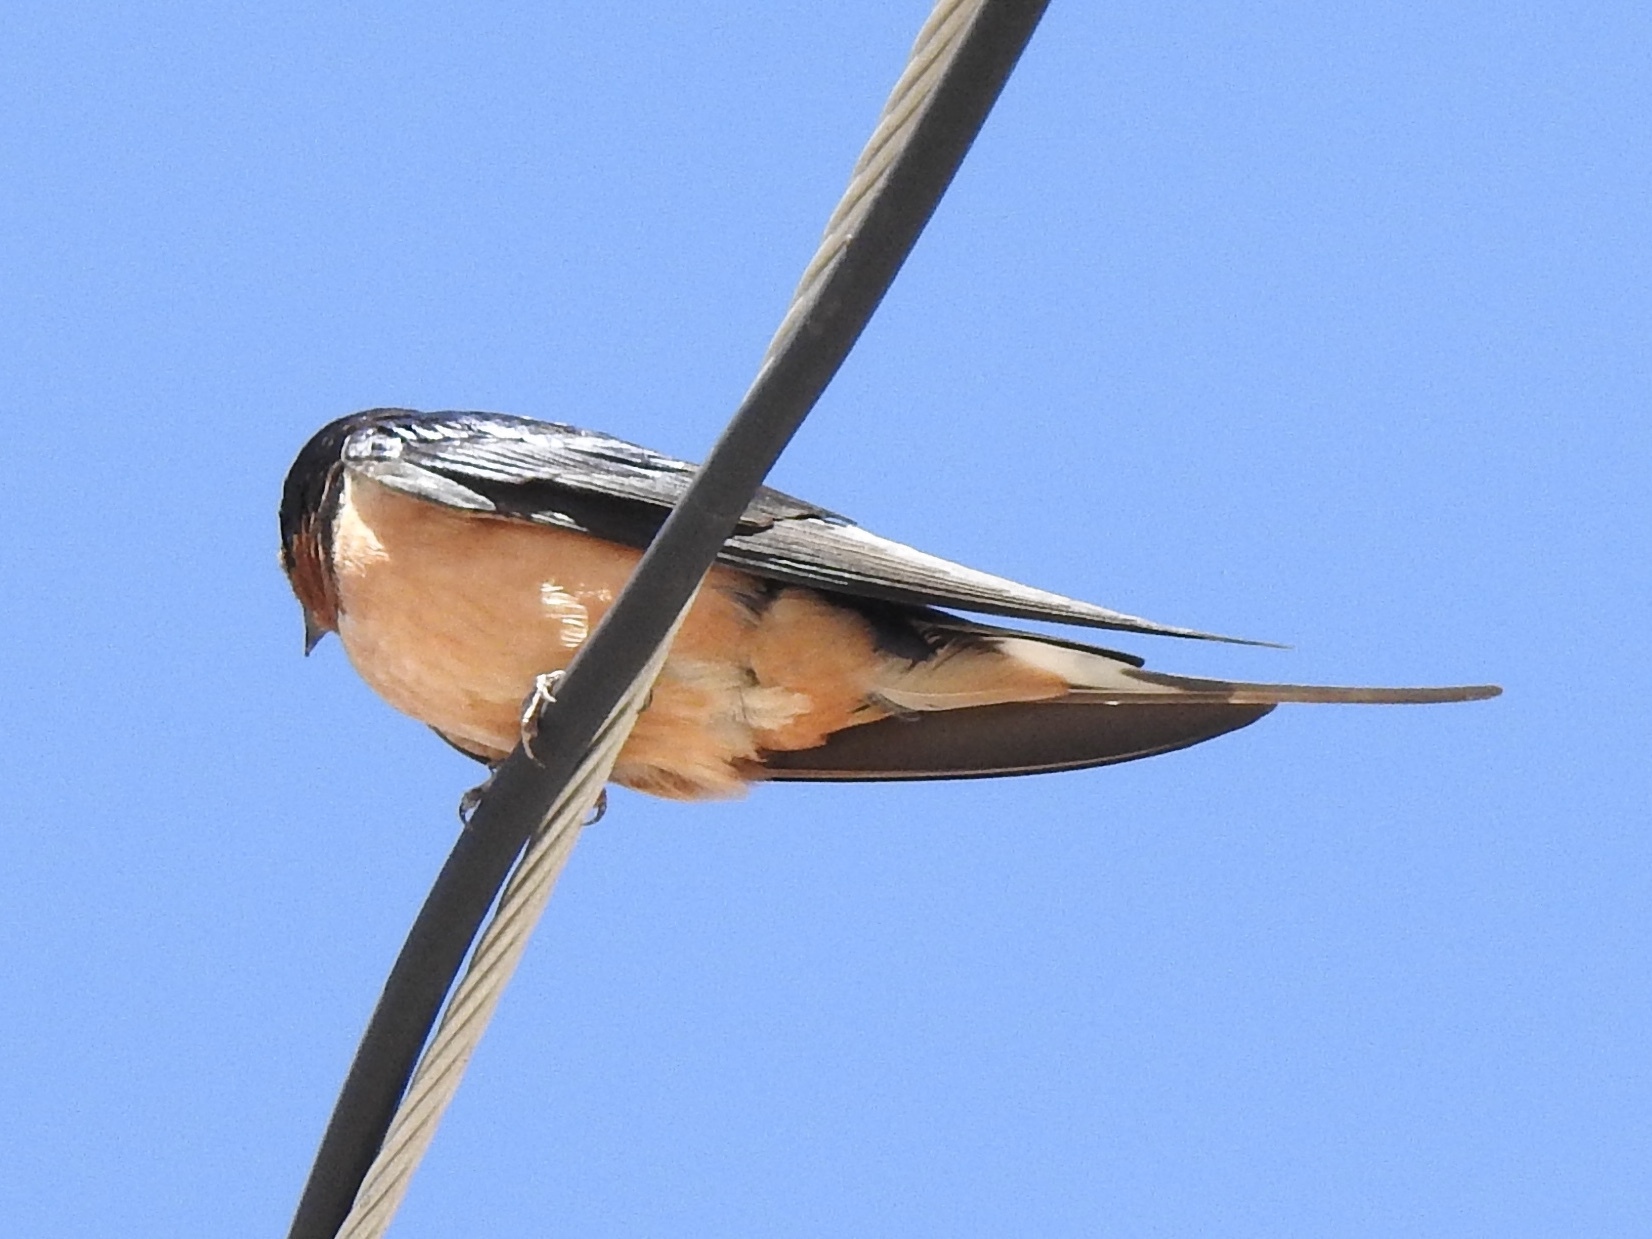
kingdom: Animalia
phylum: Chordata
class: Aves
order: Passeriformes
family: Hirundinidae
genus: Hirundo
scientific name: Hirundo rustica
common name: Barn swallow
